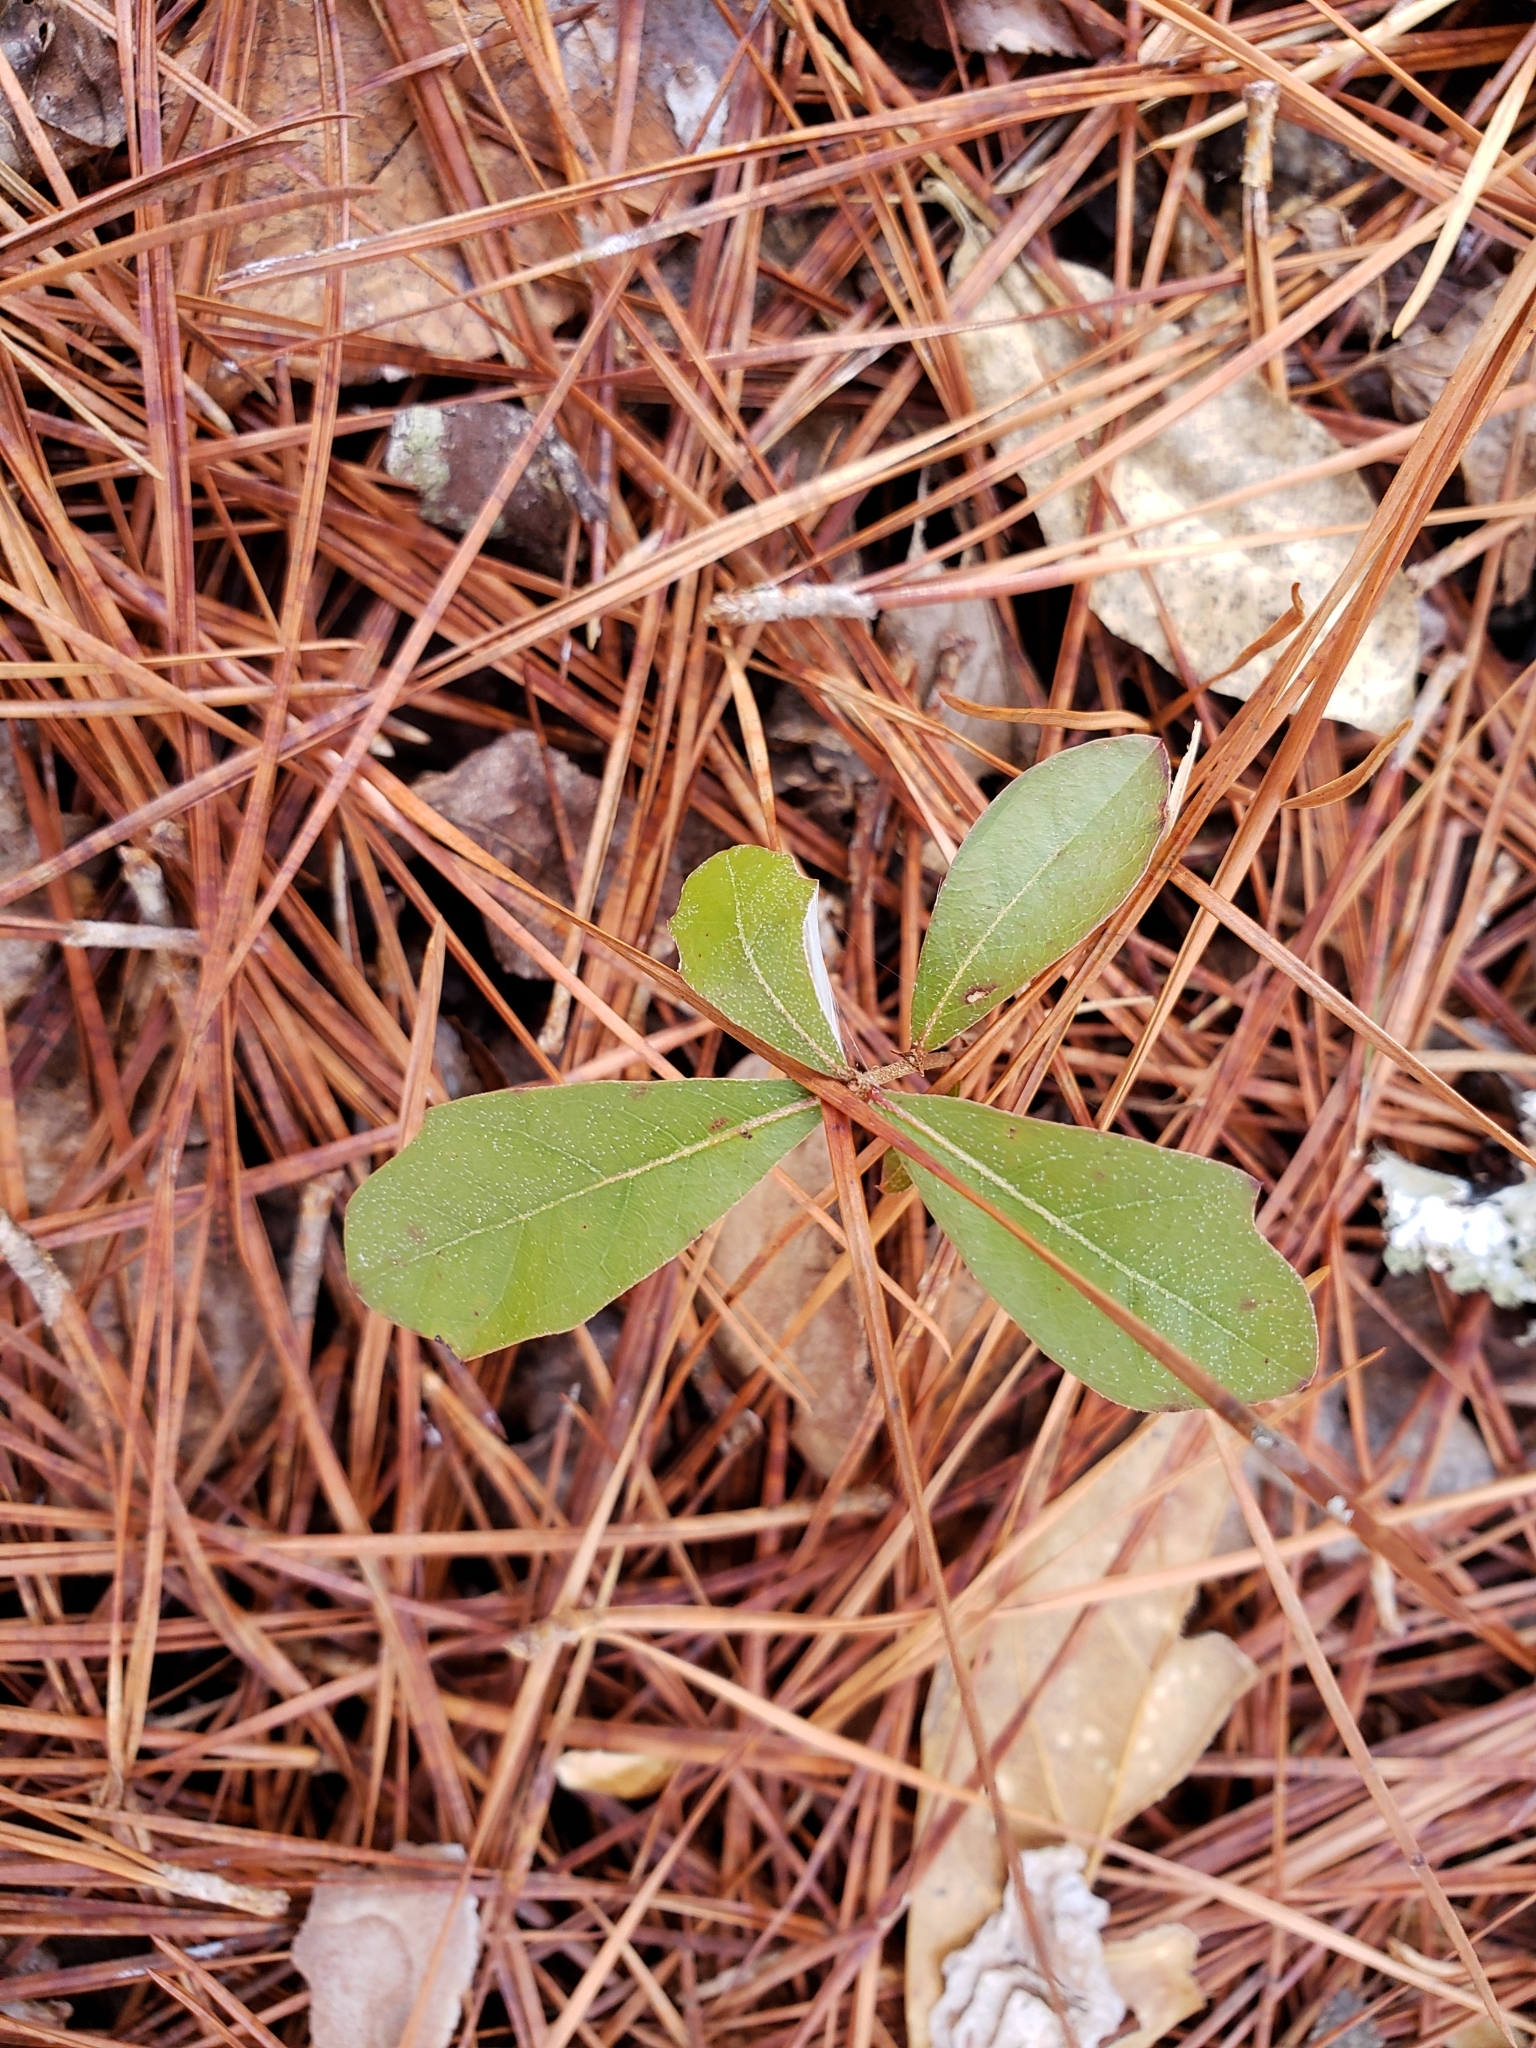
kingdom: Plantae
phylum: Tracheophyta
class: Magnoliopsida
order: Fagales
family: Fagaceae
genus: Quercus
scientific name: Quercus nigra
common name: Water oak
